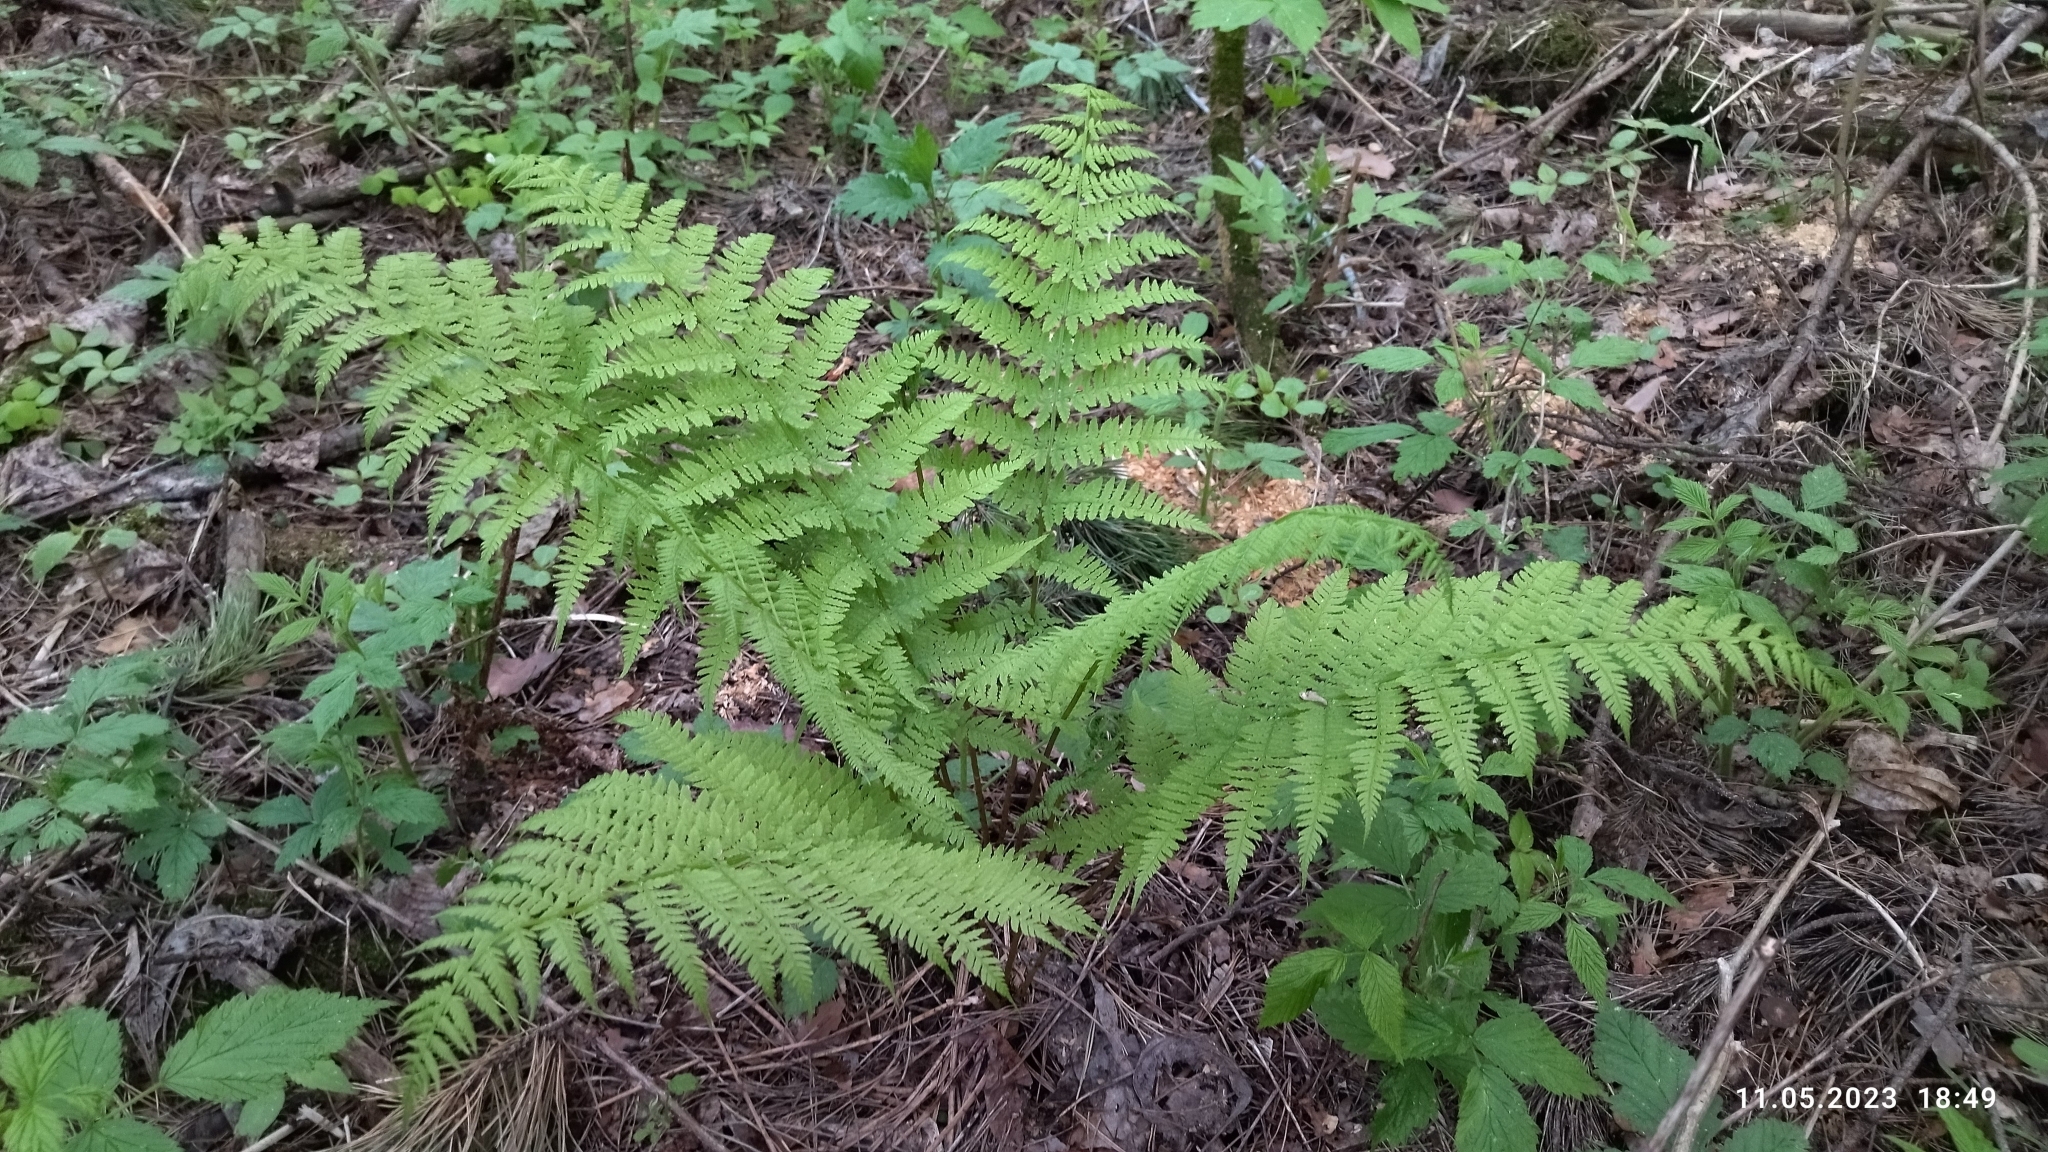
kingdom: Plantae
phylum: Tracheophyta
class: Polypodiopsida
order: Polypodiales
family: Athyriaceae
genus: Athyrium
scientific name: Athyrium filix-femina
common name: Lady fern
